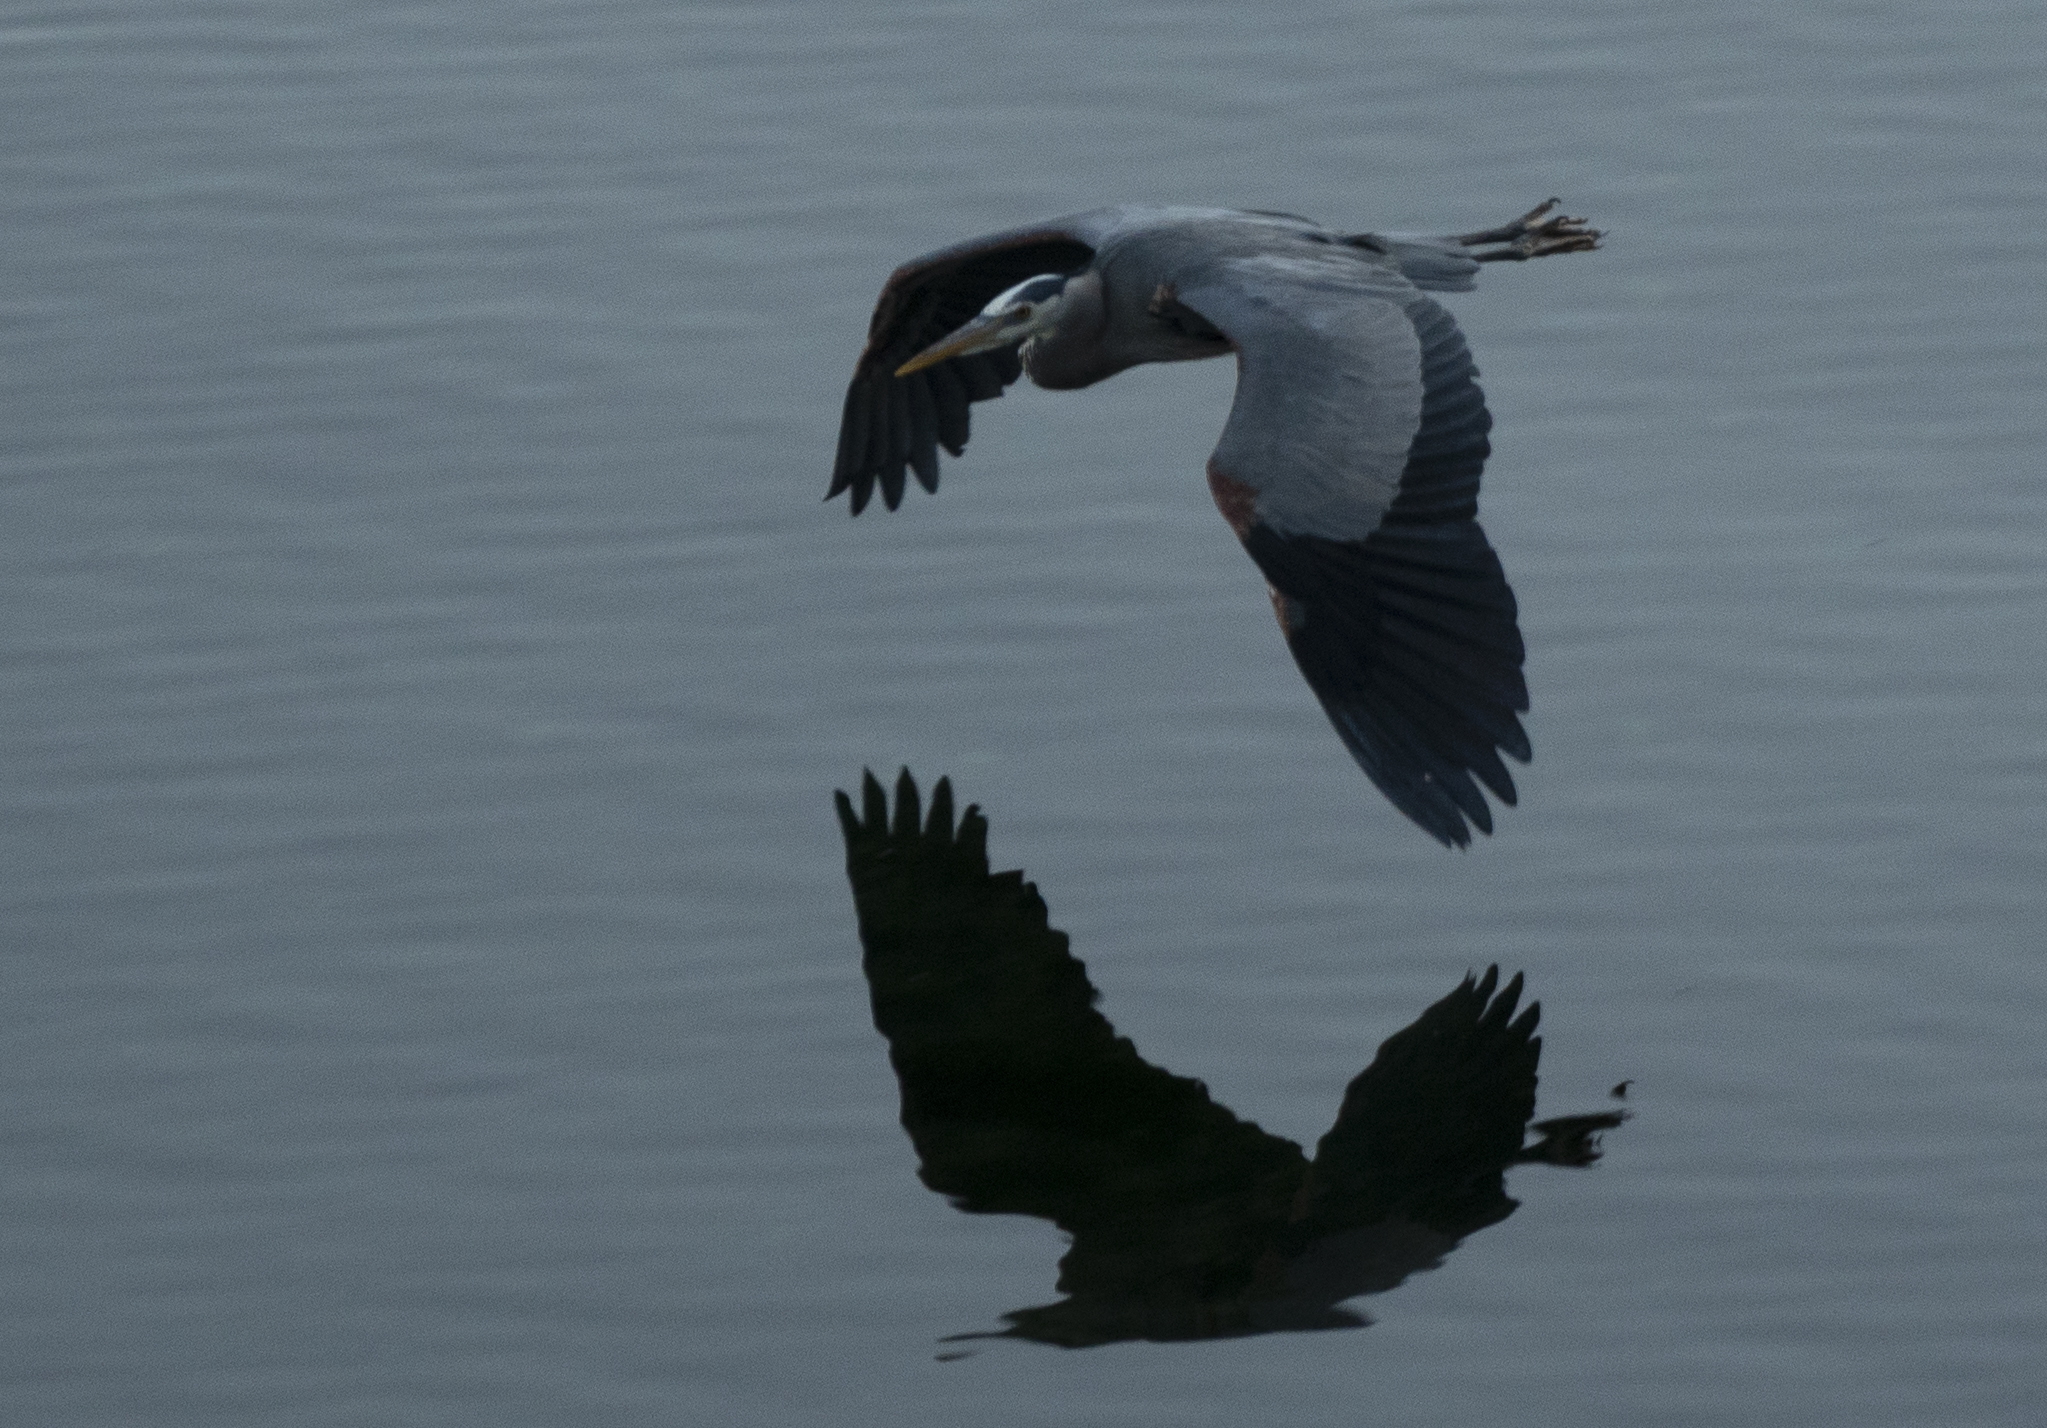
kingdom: Animalia
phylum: Chordata
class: Aves
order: Pelecaniformes
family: Ardeidae
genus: Ardea
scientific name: Ardea herodias
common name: Great blue heron
